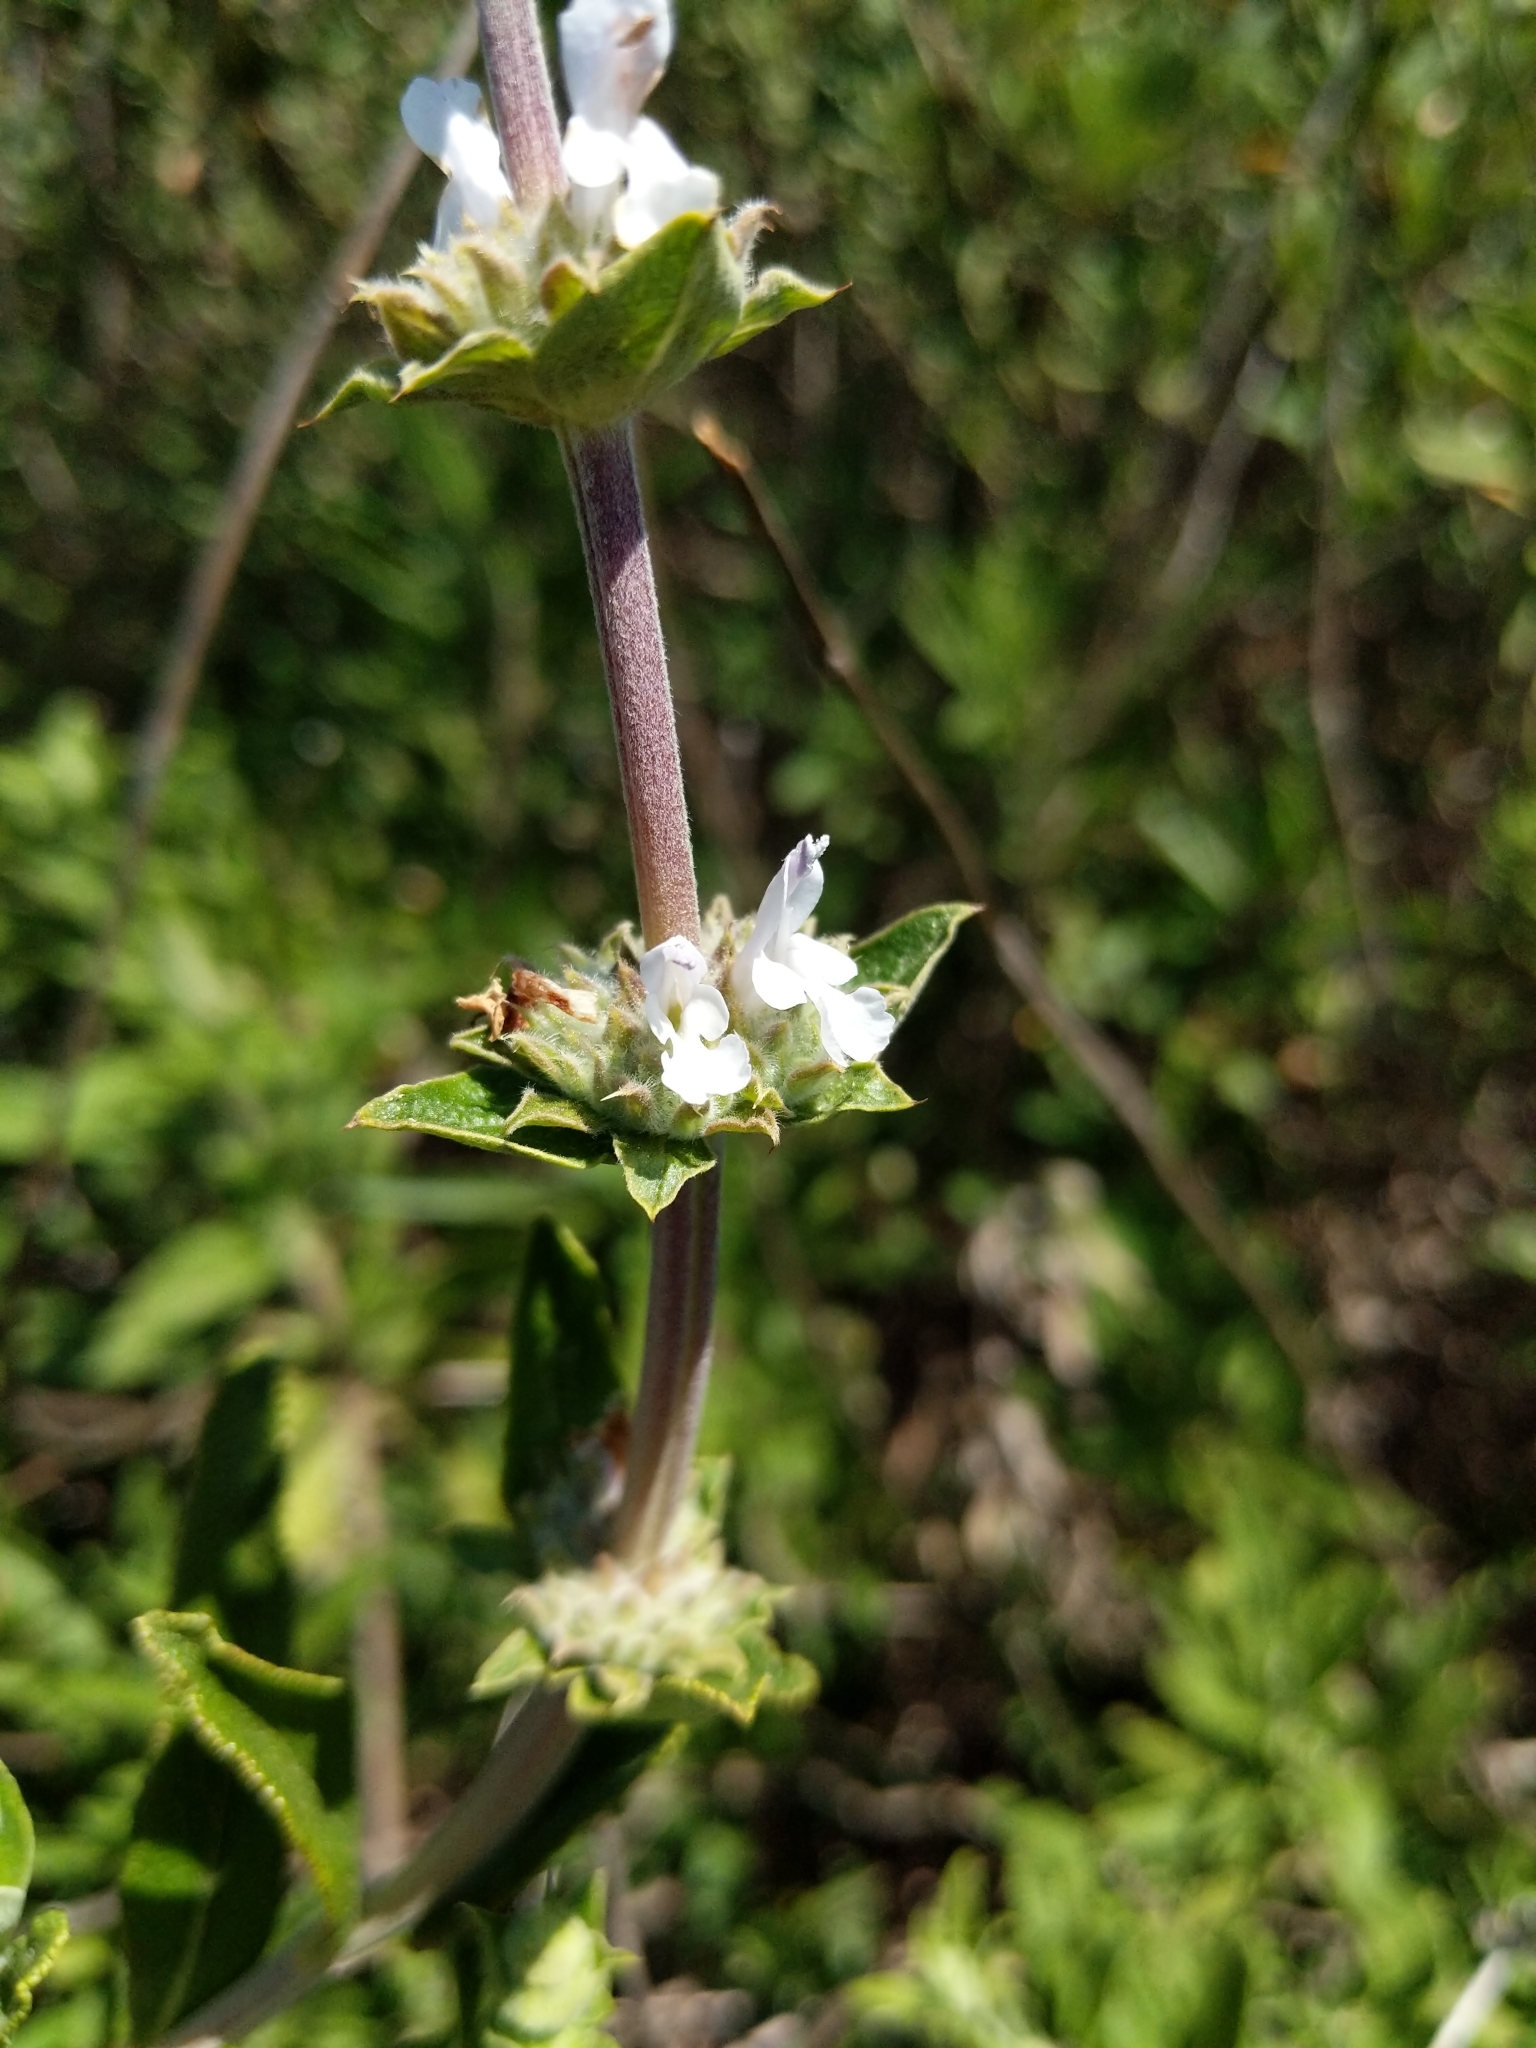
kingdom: Plantae
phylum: Tracheophyta
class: Magnoliopsida
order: Lamiales
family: Lamiaceae
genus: Salvia
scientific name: Salvia mellifera
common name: Black sage
